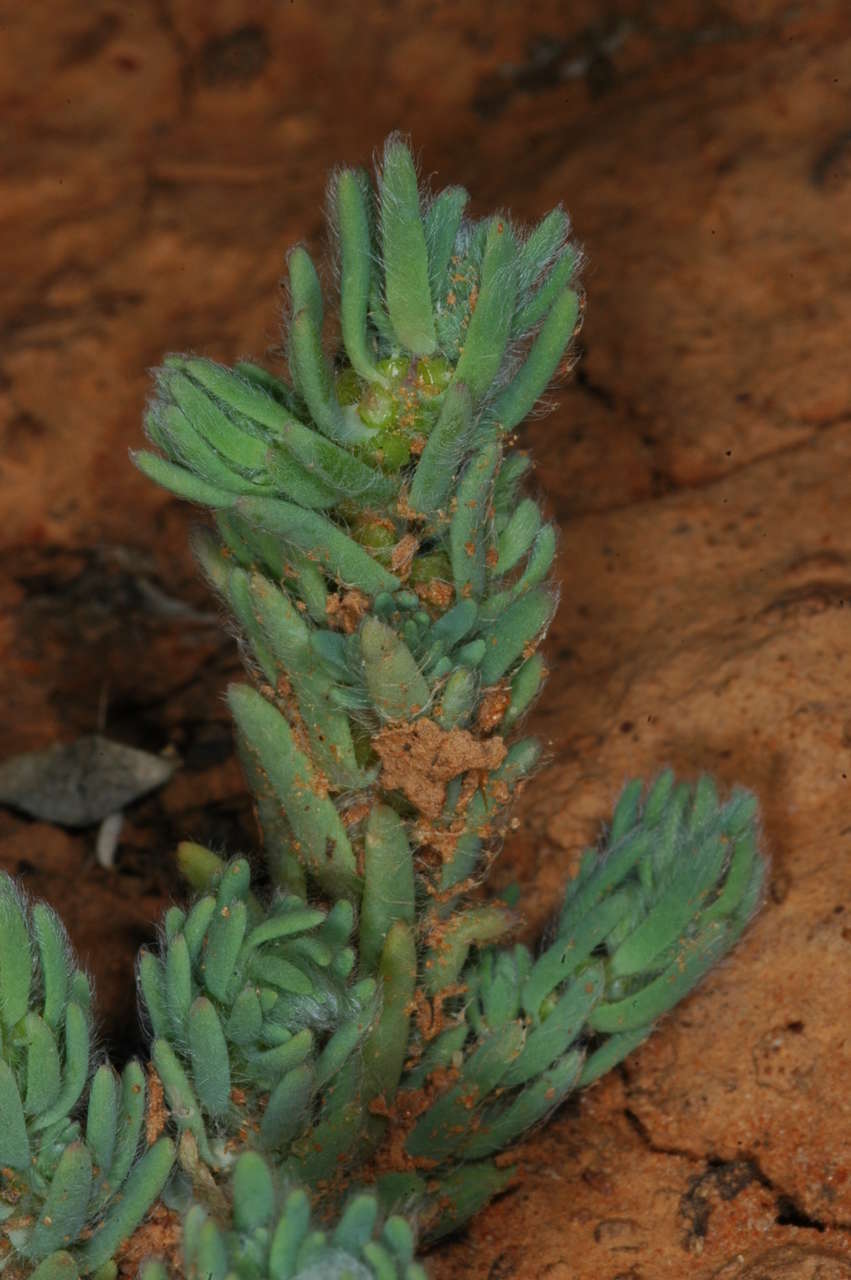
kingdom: Plantae
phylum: Tracheophyta
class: Magnoliopsida
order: Caryophyllales
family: Amaranthaceae
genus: Sclerolaena
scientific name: Sclerolaena brachyptera
